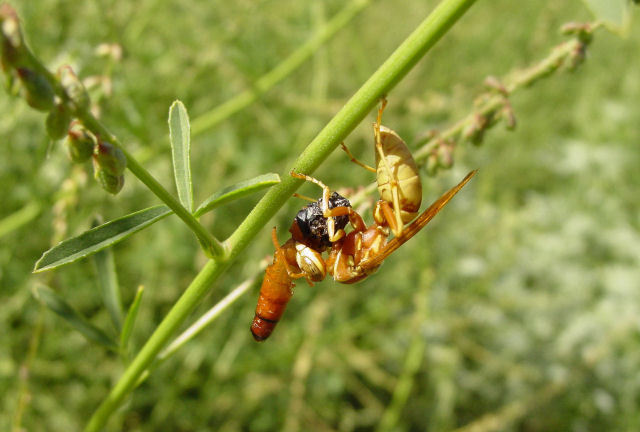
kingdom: Animalia
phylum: Arthropoda
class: Insecta
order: Hymenoptera
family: Eumenidae
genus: Polistes
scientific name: Polistes aurifer
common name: Paper wasp
